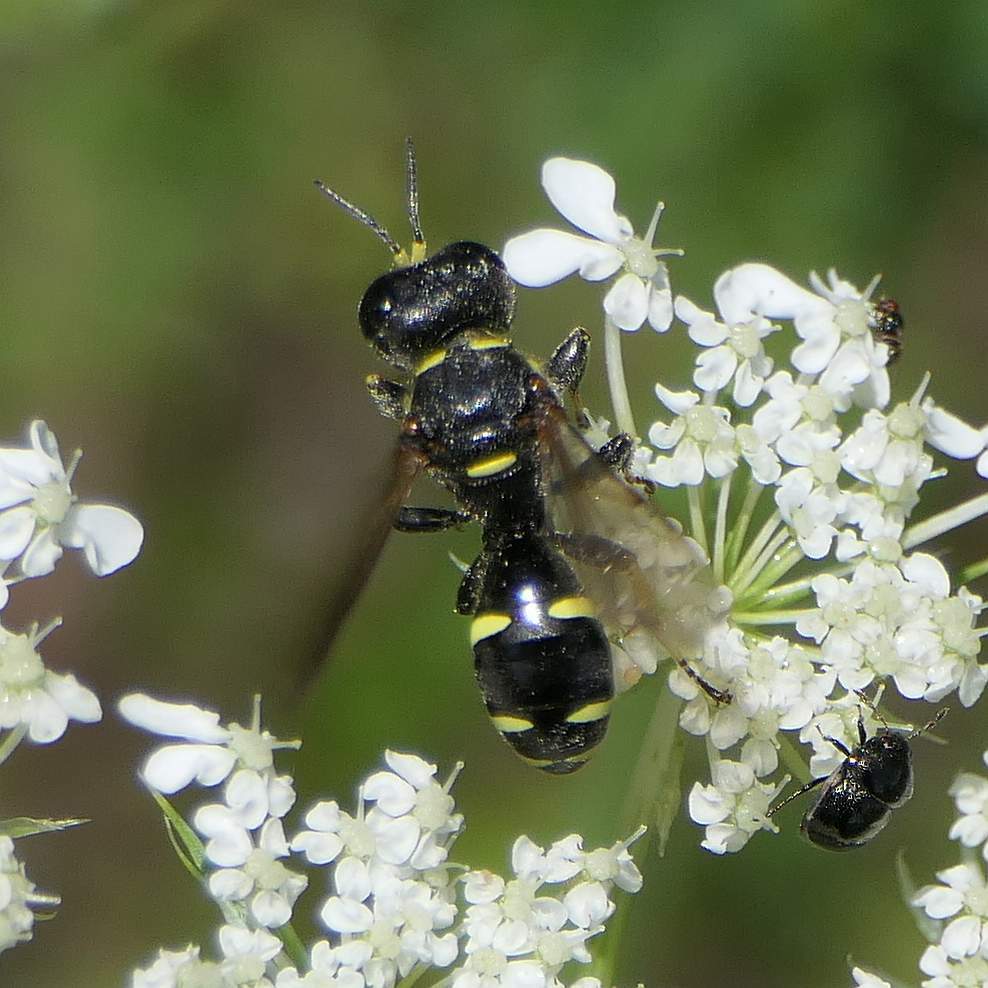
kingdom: Animalia
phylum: Arthropoda
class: Insecta
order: Hymenoptera
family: Crabronidae
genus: Ectemnius
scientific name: Ectemnius continuus
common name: Common ectemnius
